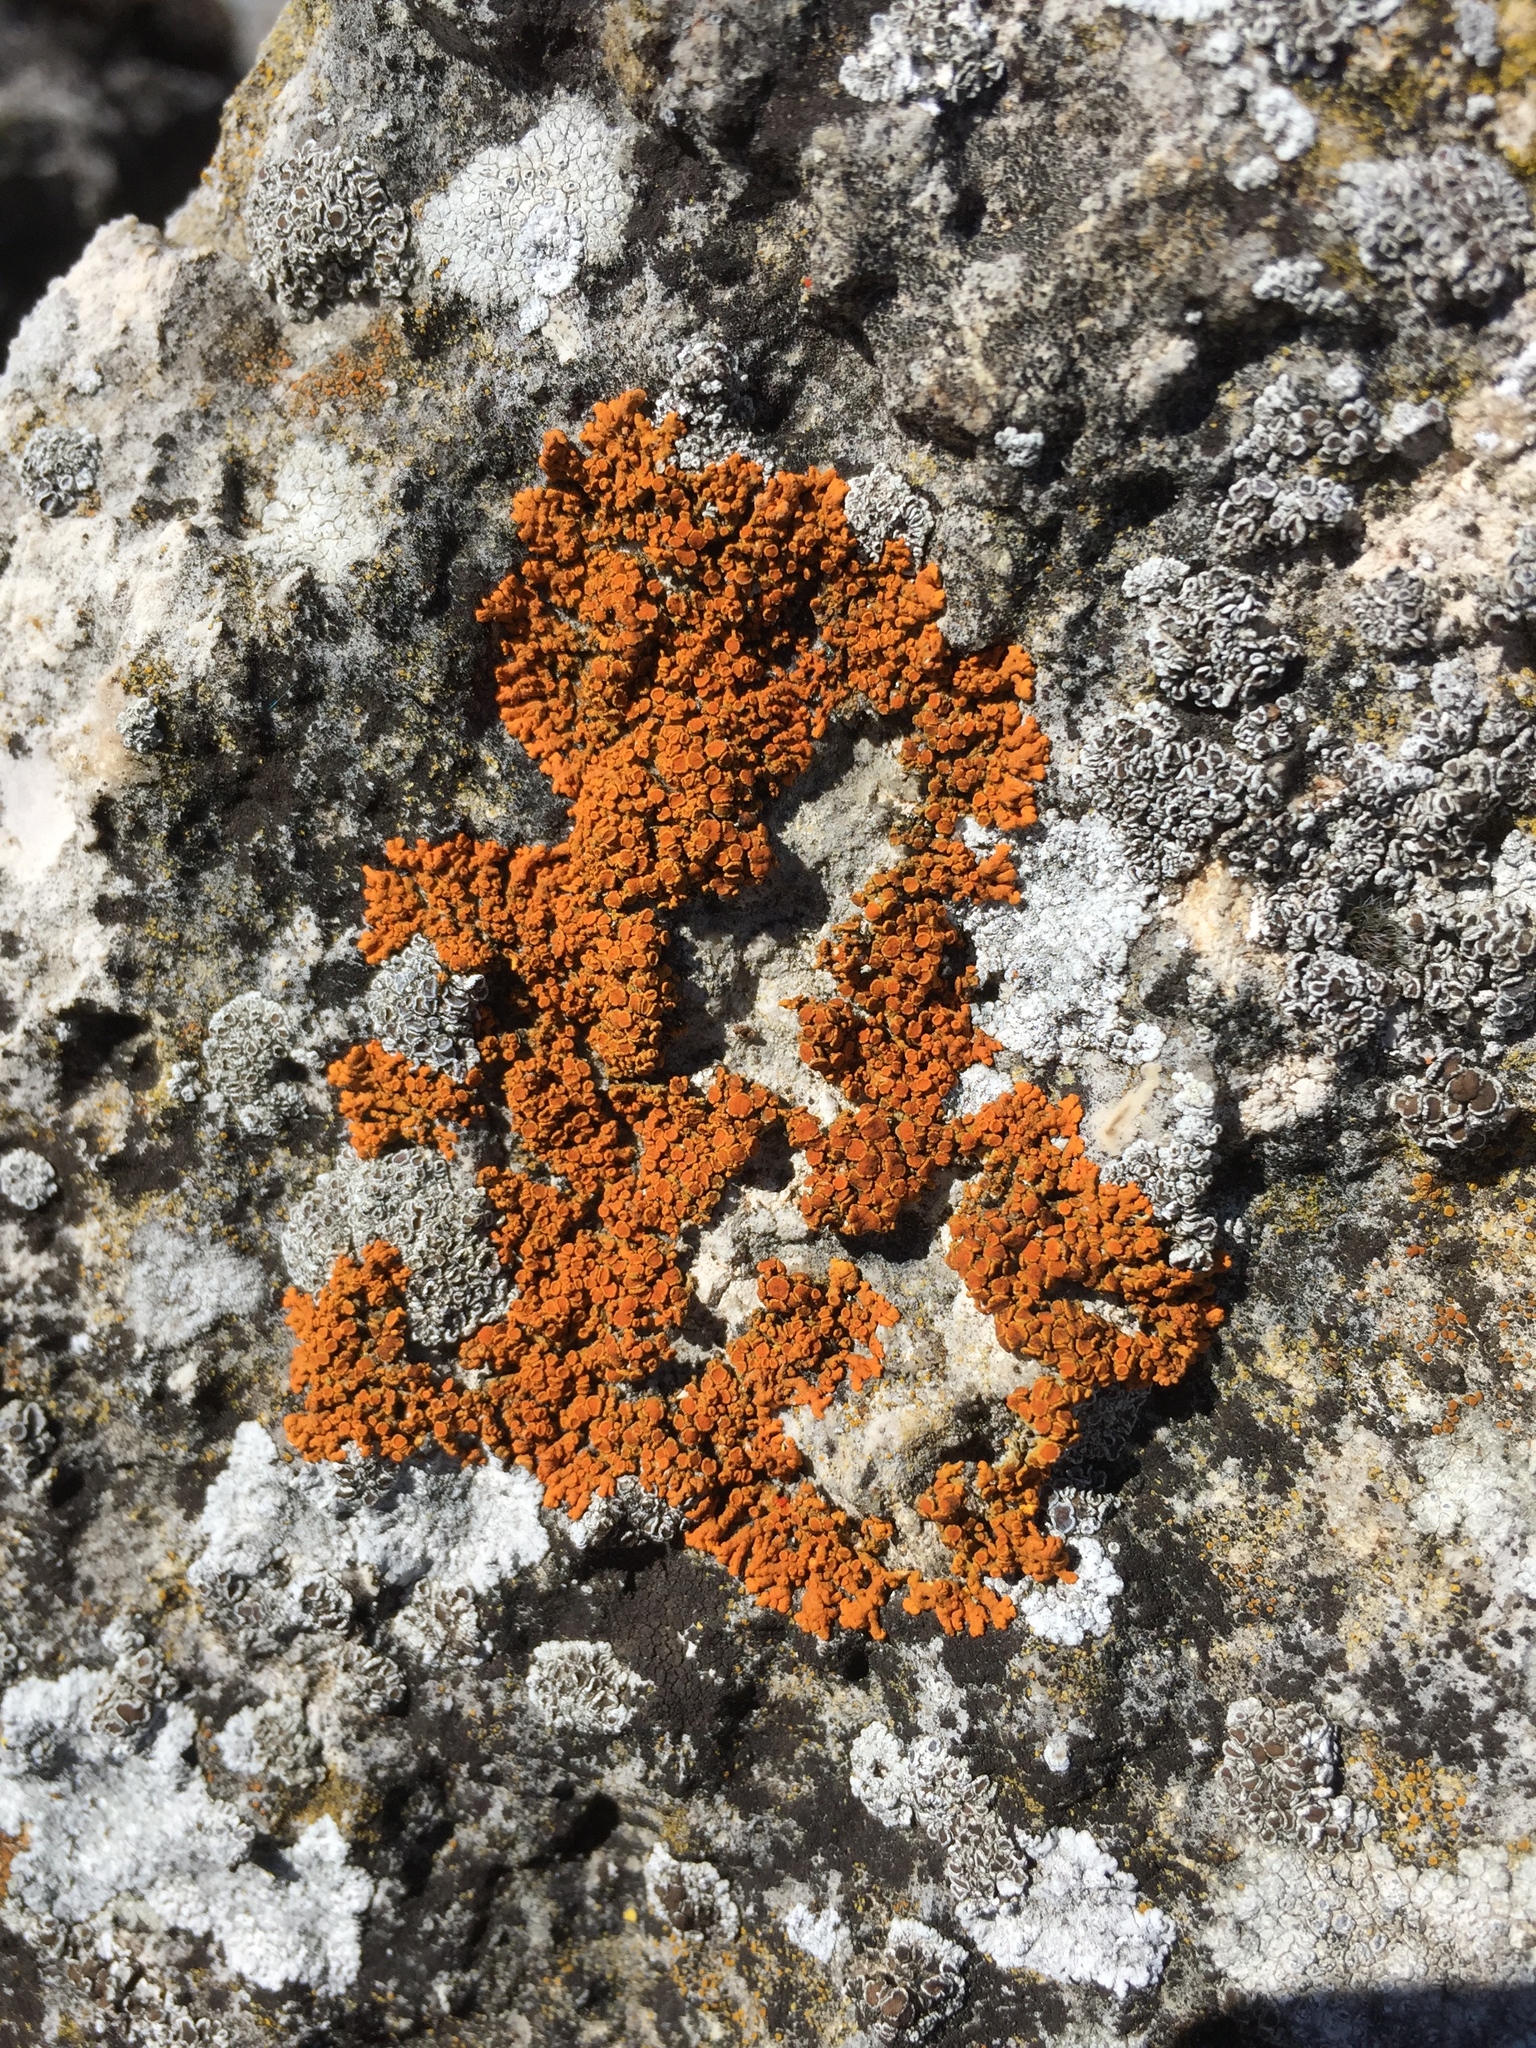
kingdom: Fungi
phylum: Ascomycota
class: Lecanoromycetes
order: Teloschistales
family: Teloschistaceae
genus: Xanthoria
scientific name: Xanthoria elegans
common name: Elegant sunburst lichen
